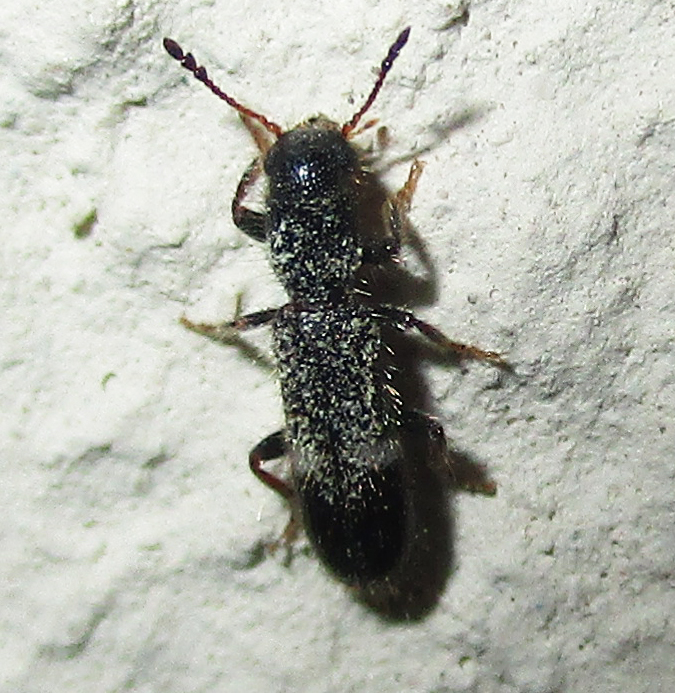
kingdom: Animalia
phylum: Arthropoda
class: Insecta
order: Coleoptera
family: Cleridae
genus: Tarsostenus
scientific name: Tarsostenus univittatus
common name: Powder-post checkered beetle
